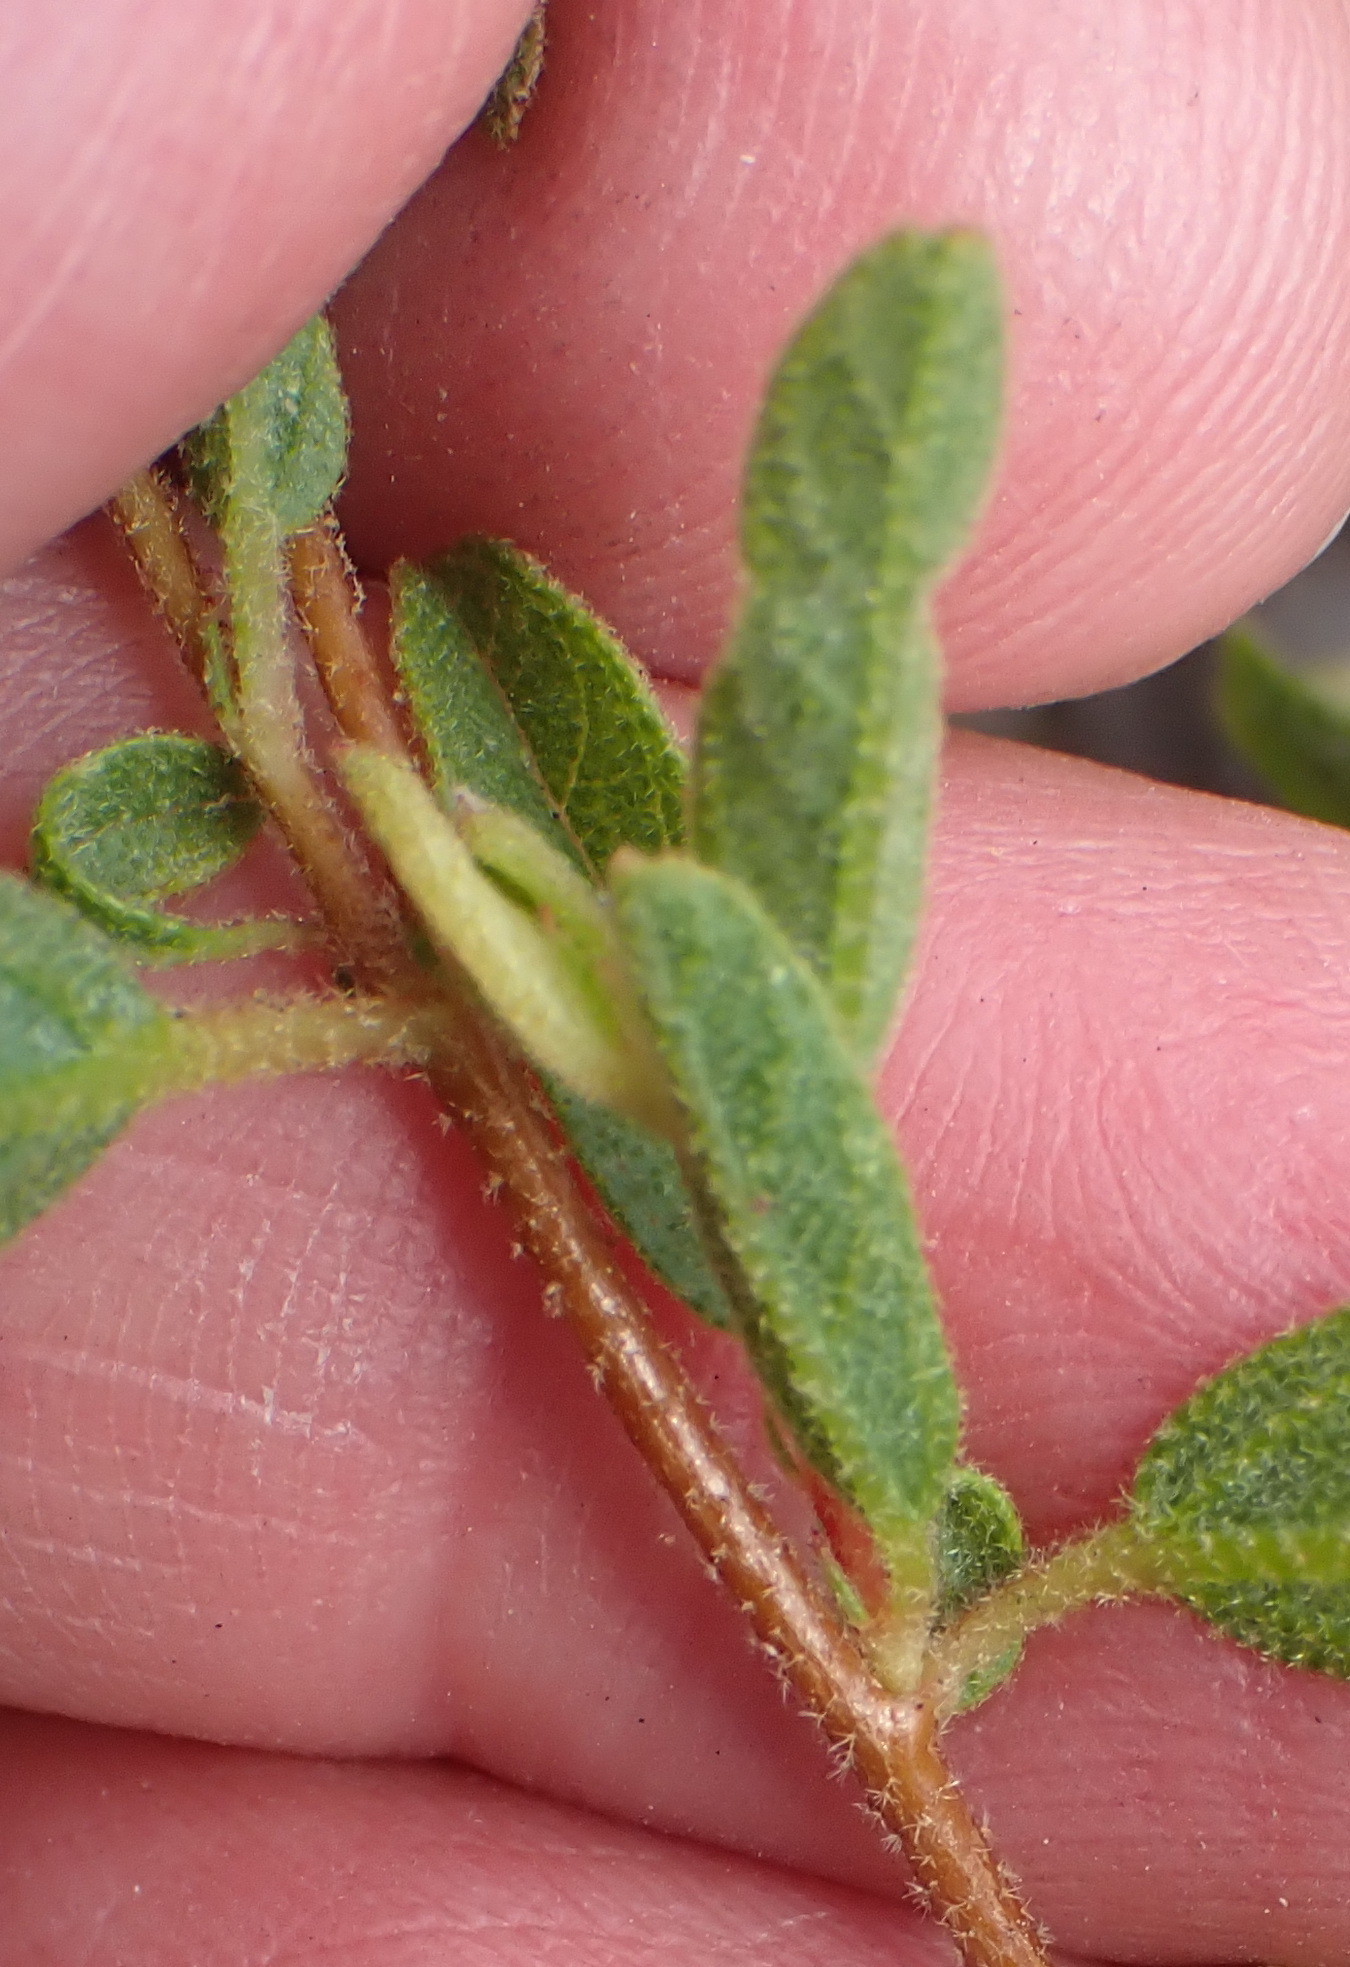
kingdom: Plantae
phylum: Tracheophyta
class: Magnoliopsida
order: Malvales
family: Malvaceae
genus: Hermannia
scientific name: Hermannia salviifolia
